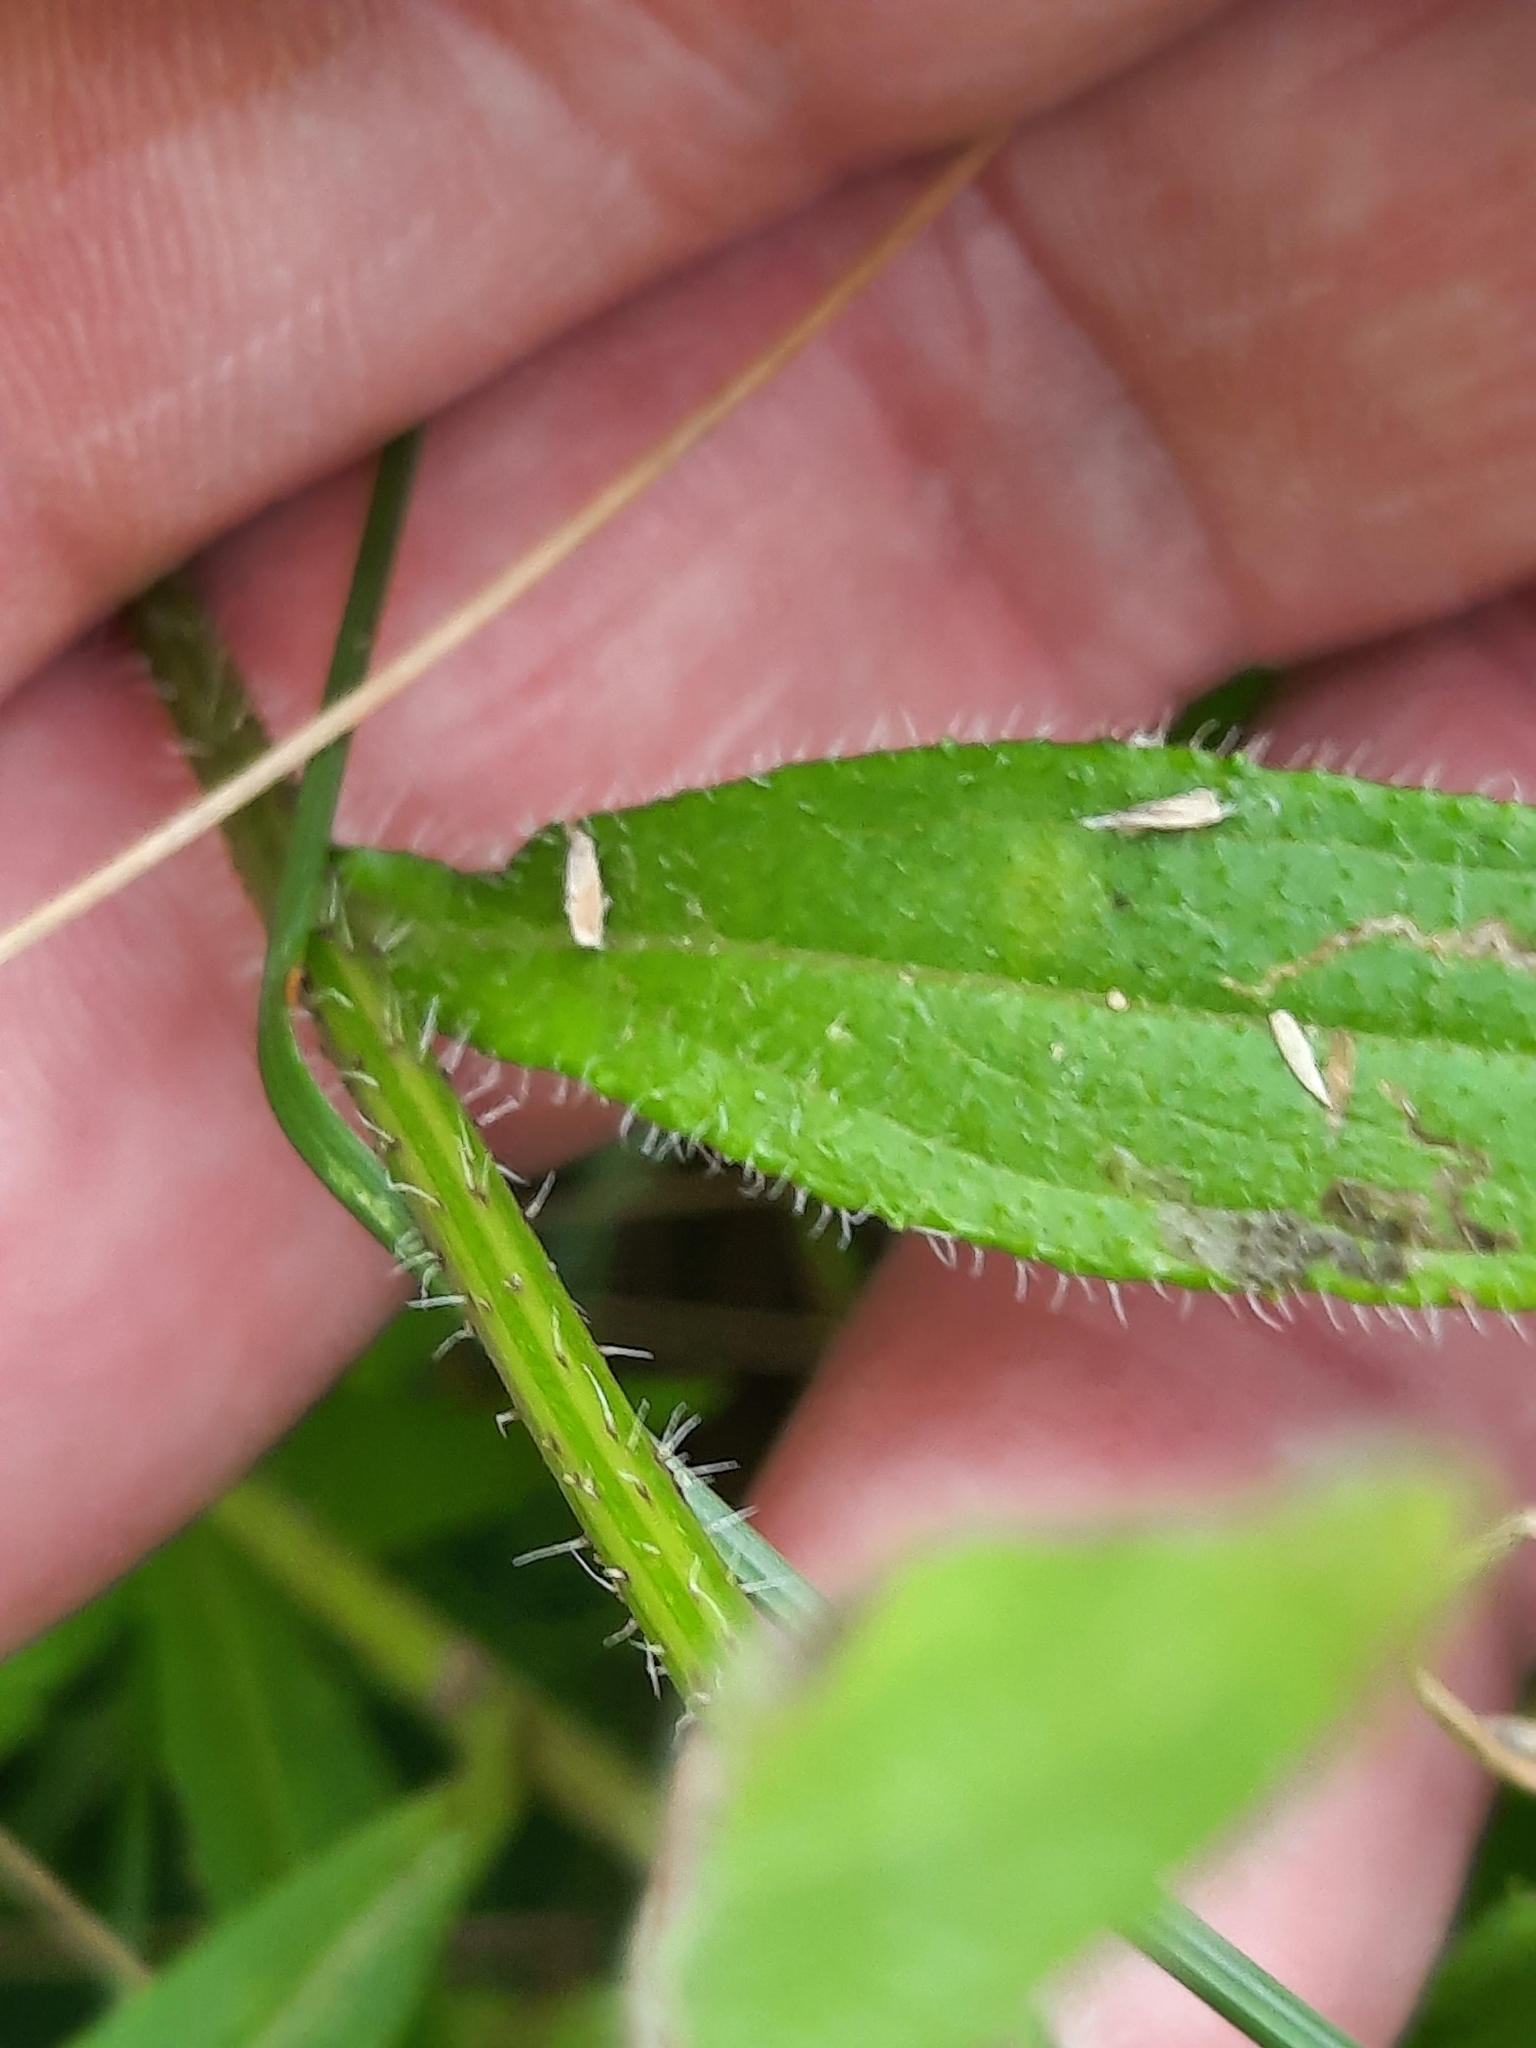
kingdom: Plantae
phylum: Tracheophyta
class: Magnoliopsida
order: Asterales
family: Asteraceae
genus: Rudbeckia
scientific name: Rudbeckia hirta
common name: Black-eyed-susan
